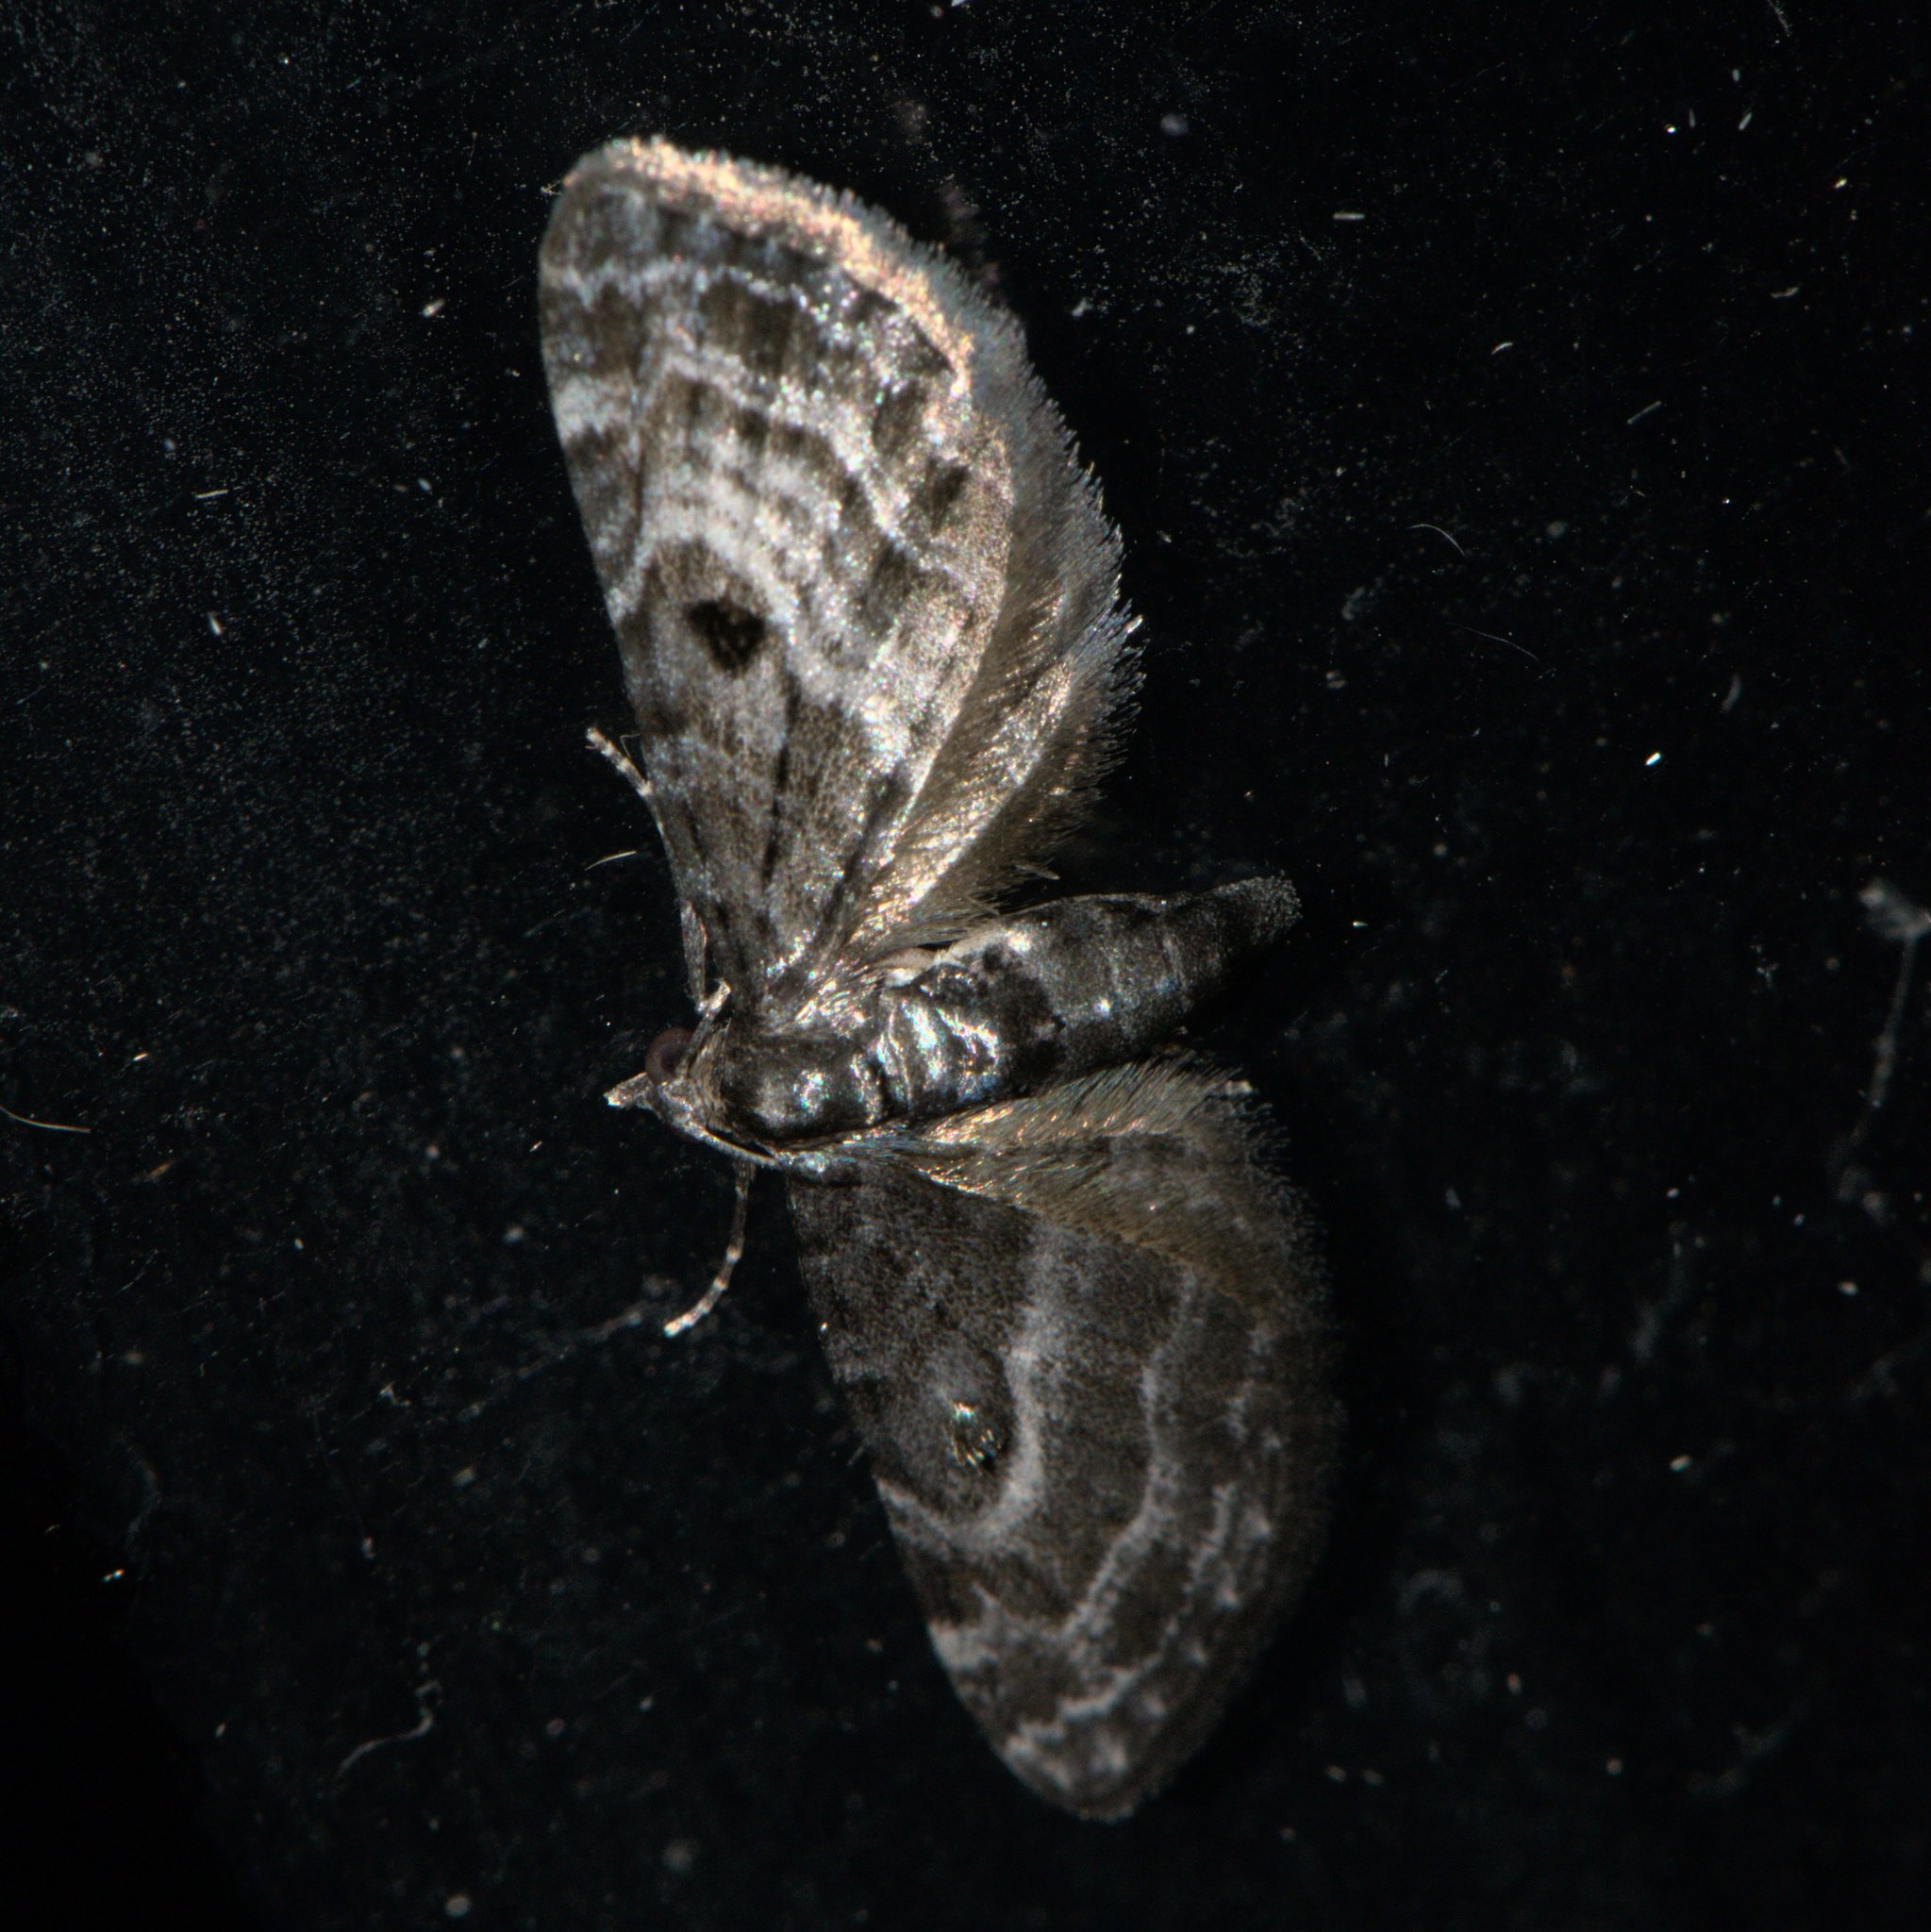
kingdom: Animalia
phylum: Arthropoda
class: Insecta
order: Lepidoptera
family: Geometridae
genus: Eupithecia
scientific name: Eupithecia atrisignis
